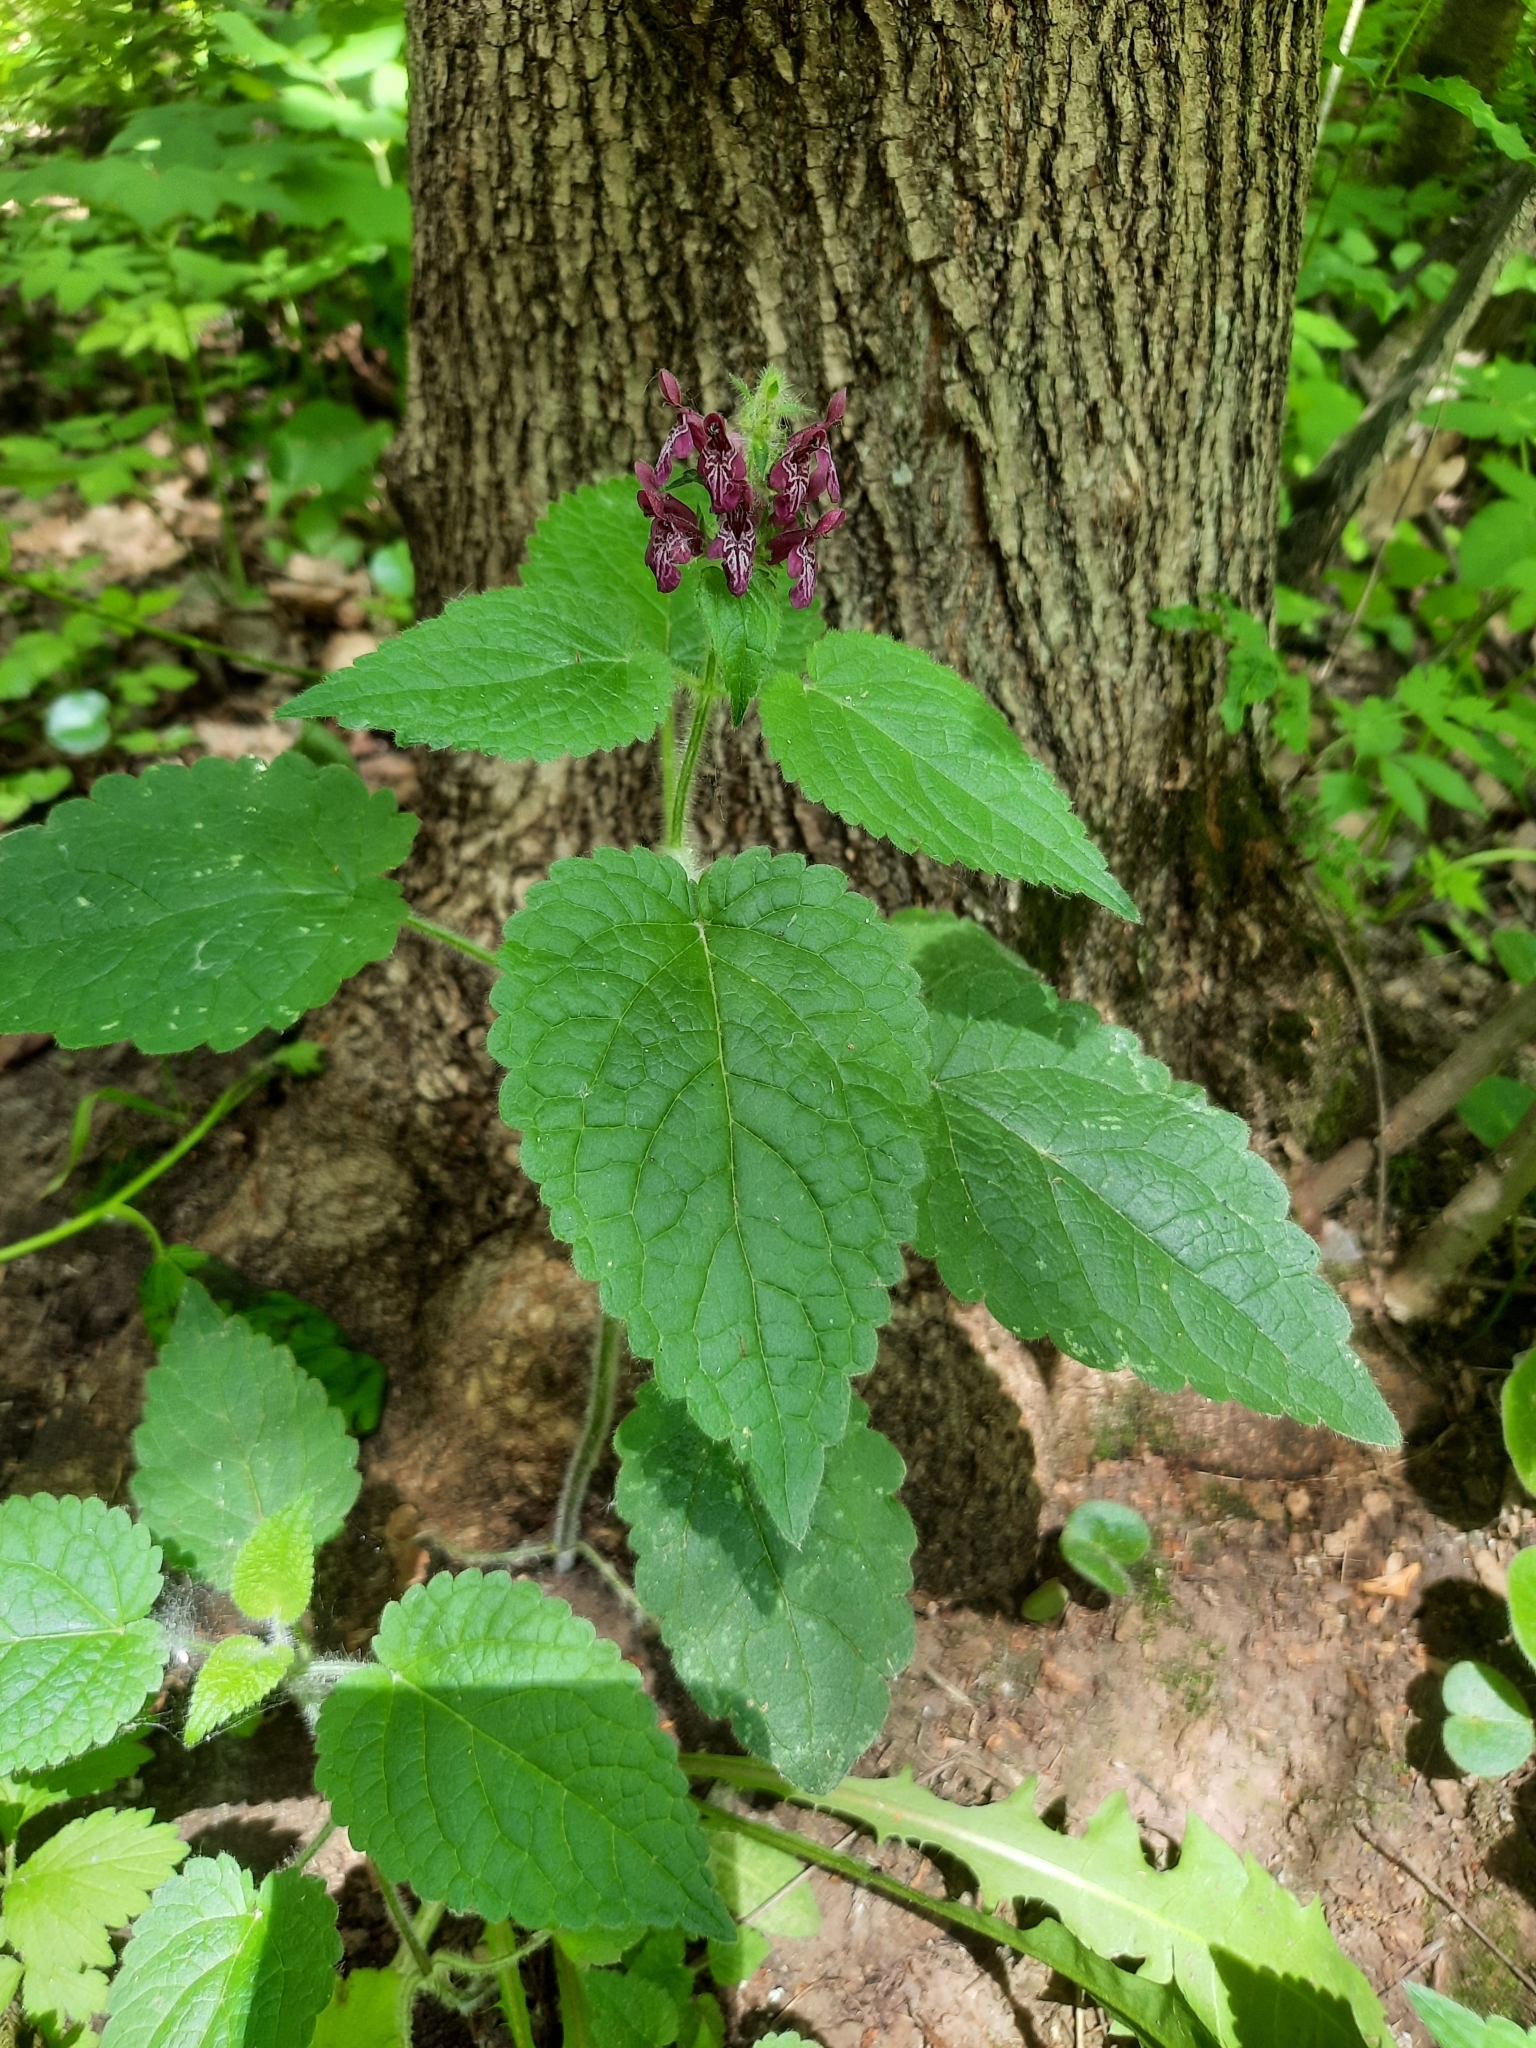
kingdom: Plantae
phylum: Tracheophyta
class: Magnoliopsida
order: Lamiales
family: Lamiaceae
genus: Stachys
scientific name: Stachys sylvatica
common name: Hedge woundwort
